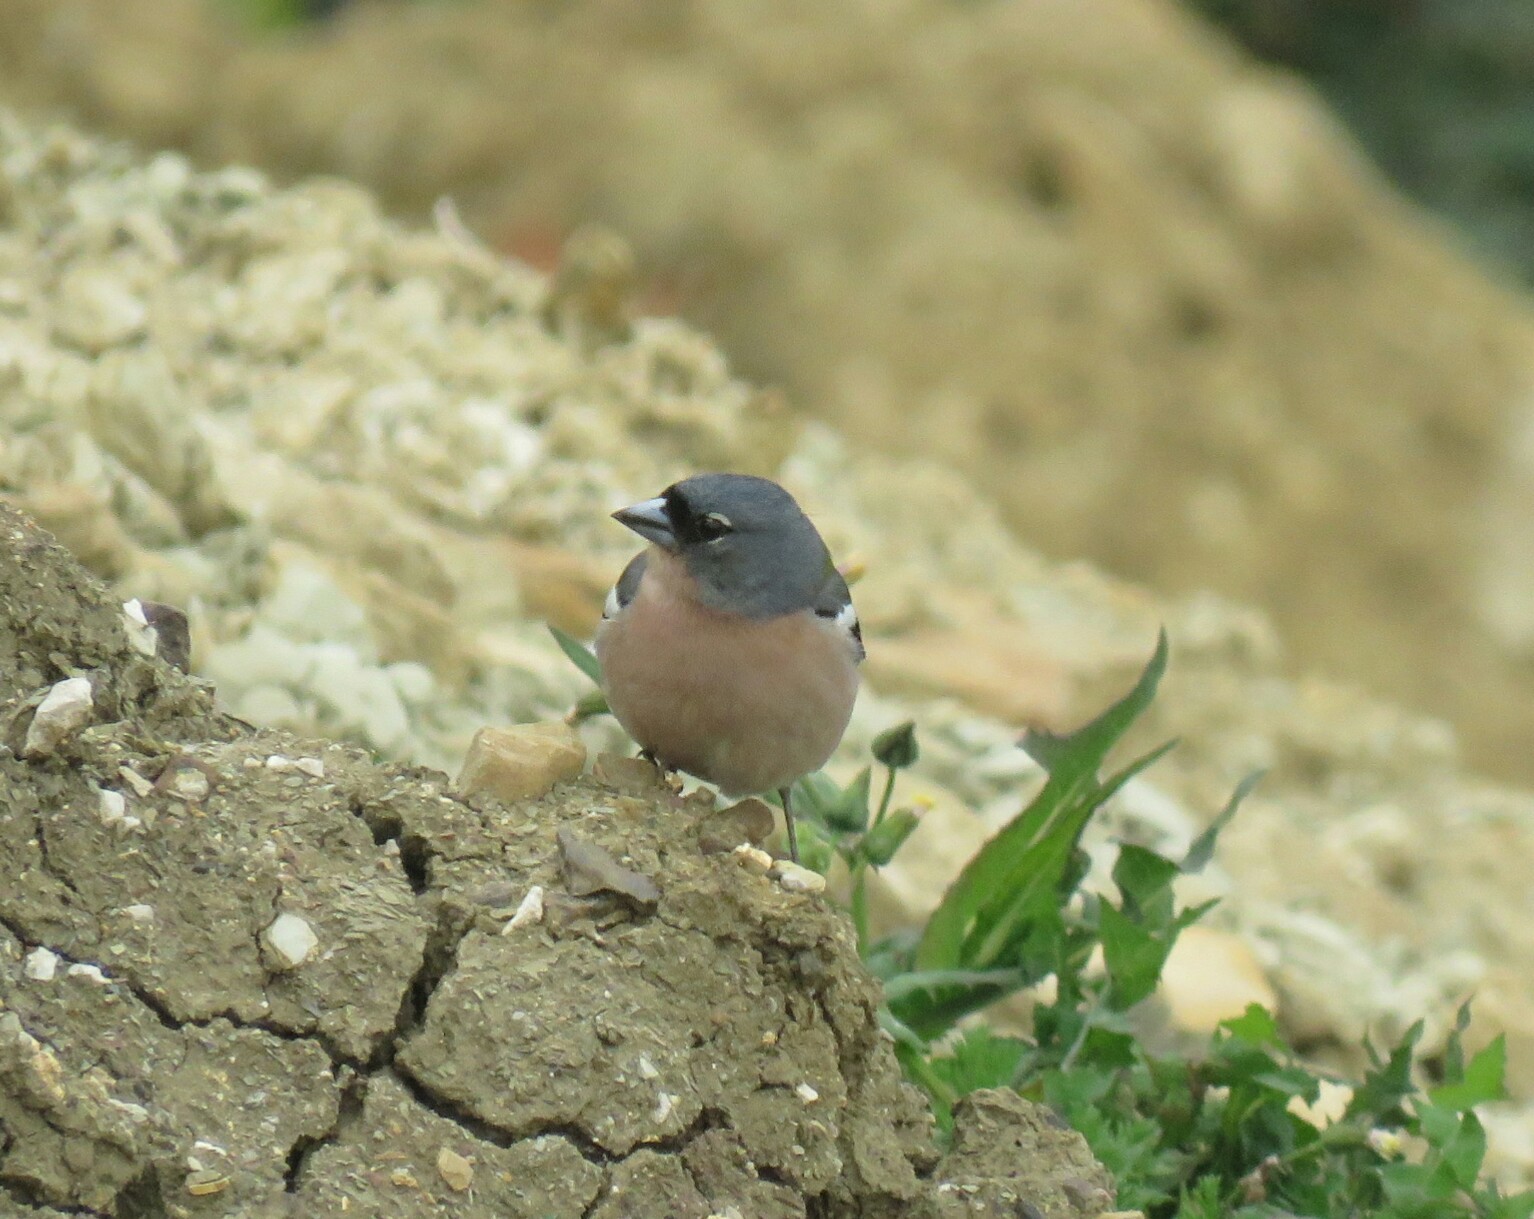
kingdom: Animalia
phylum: Chordata
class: Aves
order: Passeriformes
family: Fringillidae
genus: Fringilla
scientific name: Fringilla spodiogenys
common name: African chaffinch
